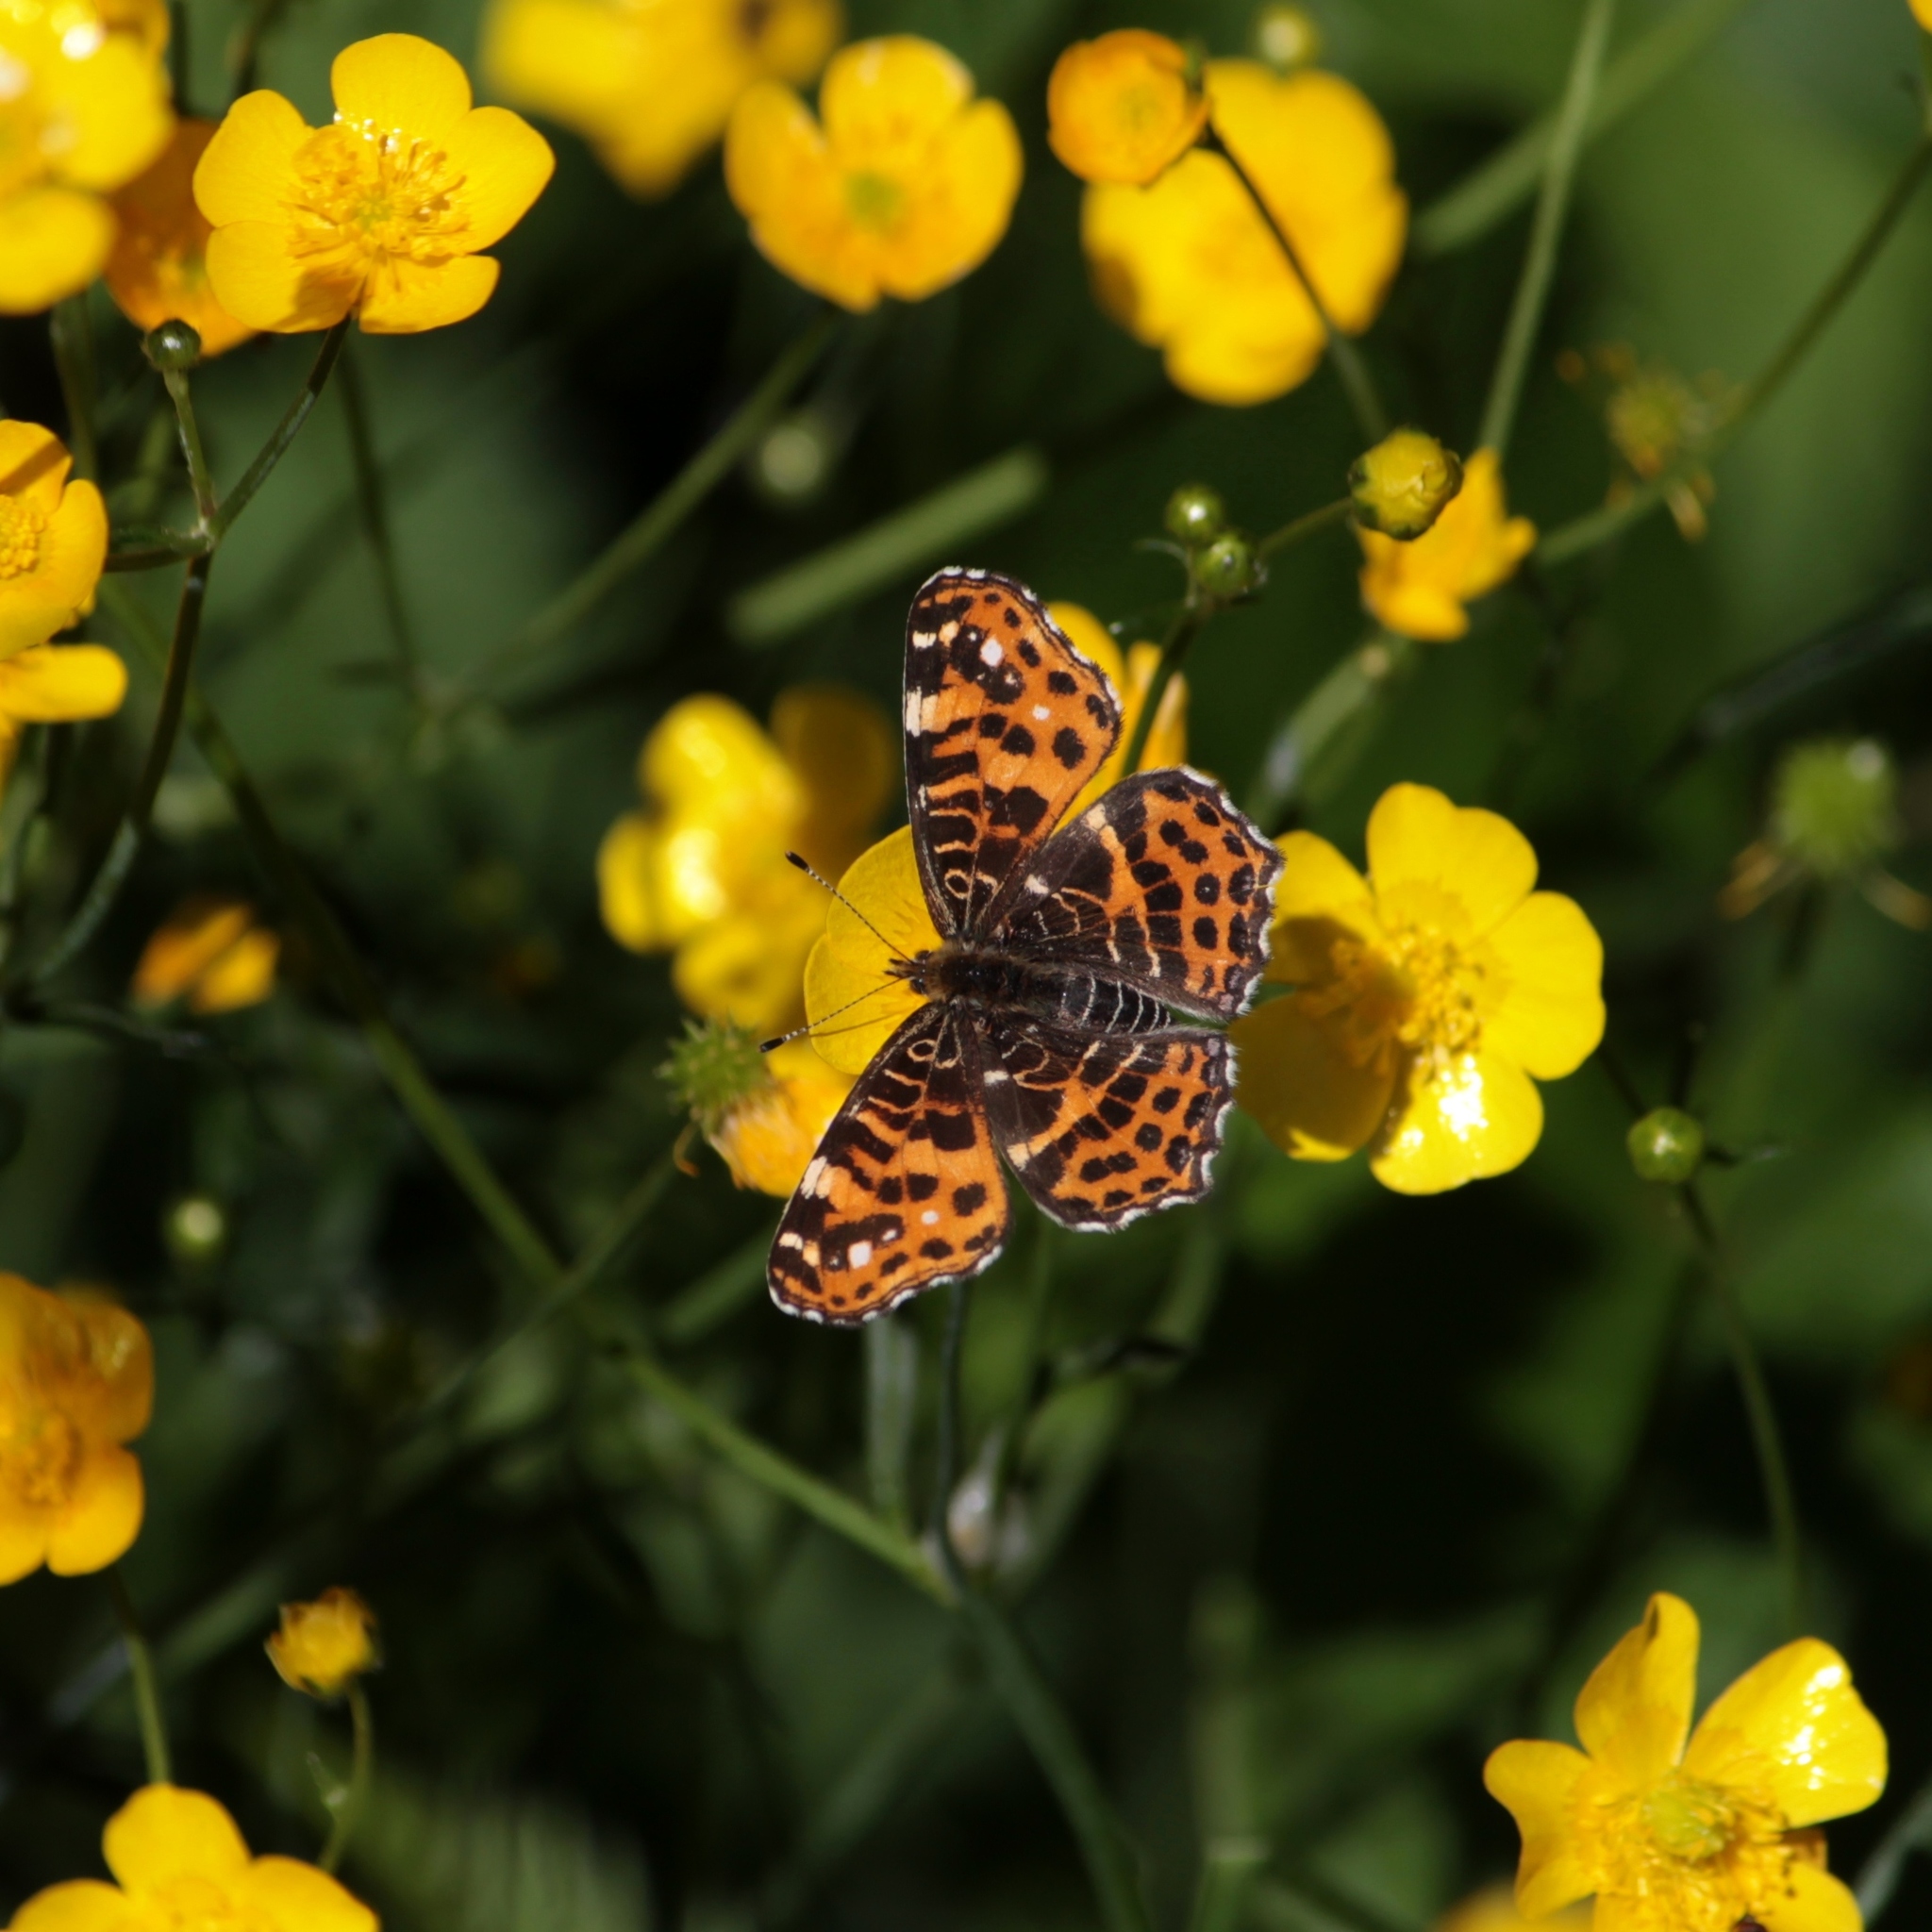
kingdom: Animalia
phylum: Arthropoda
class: Insecta
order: Lepidoptera
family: Nymphalidae
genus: Araschnia
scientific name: Araschnia levana
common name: Map butterfly
